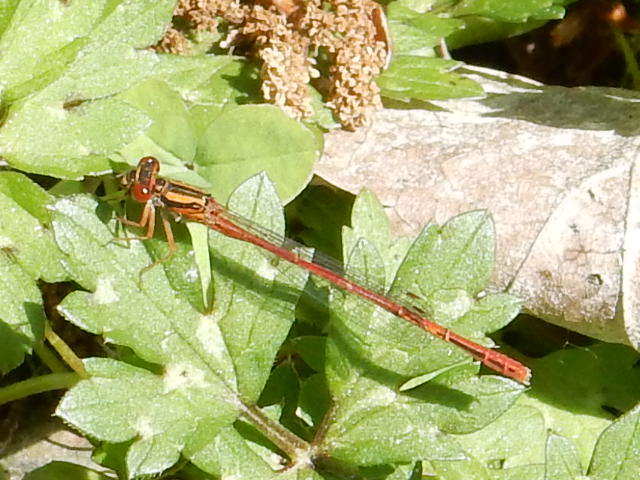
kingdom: Animalia
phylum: Arthropoda
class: Insecta
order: Odonata
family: Coenagrionidae
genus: Xanthocnemis
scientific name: Xanthocnemis zealandica
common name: Common redcoat damselfly
